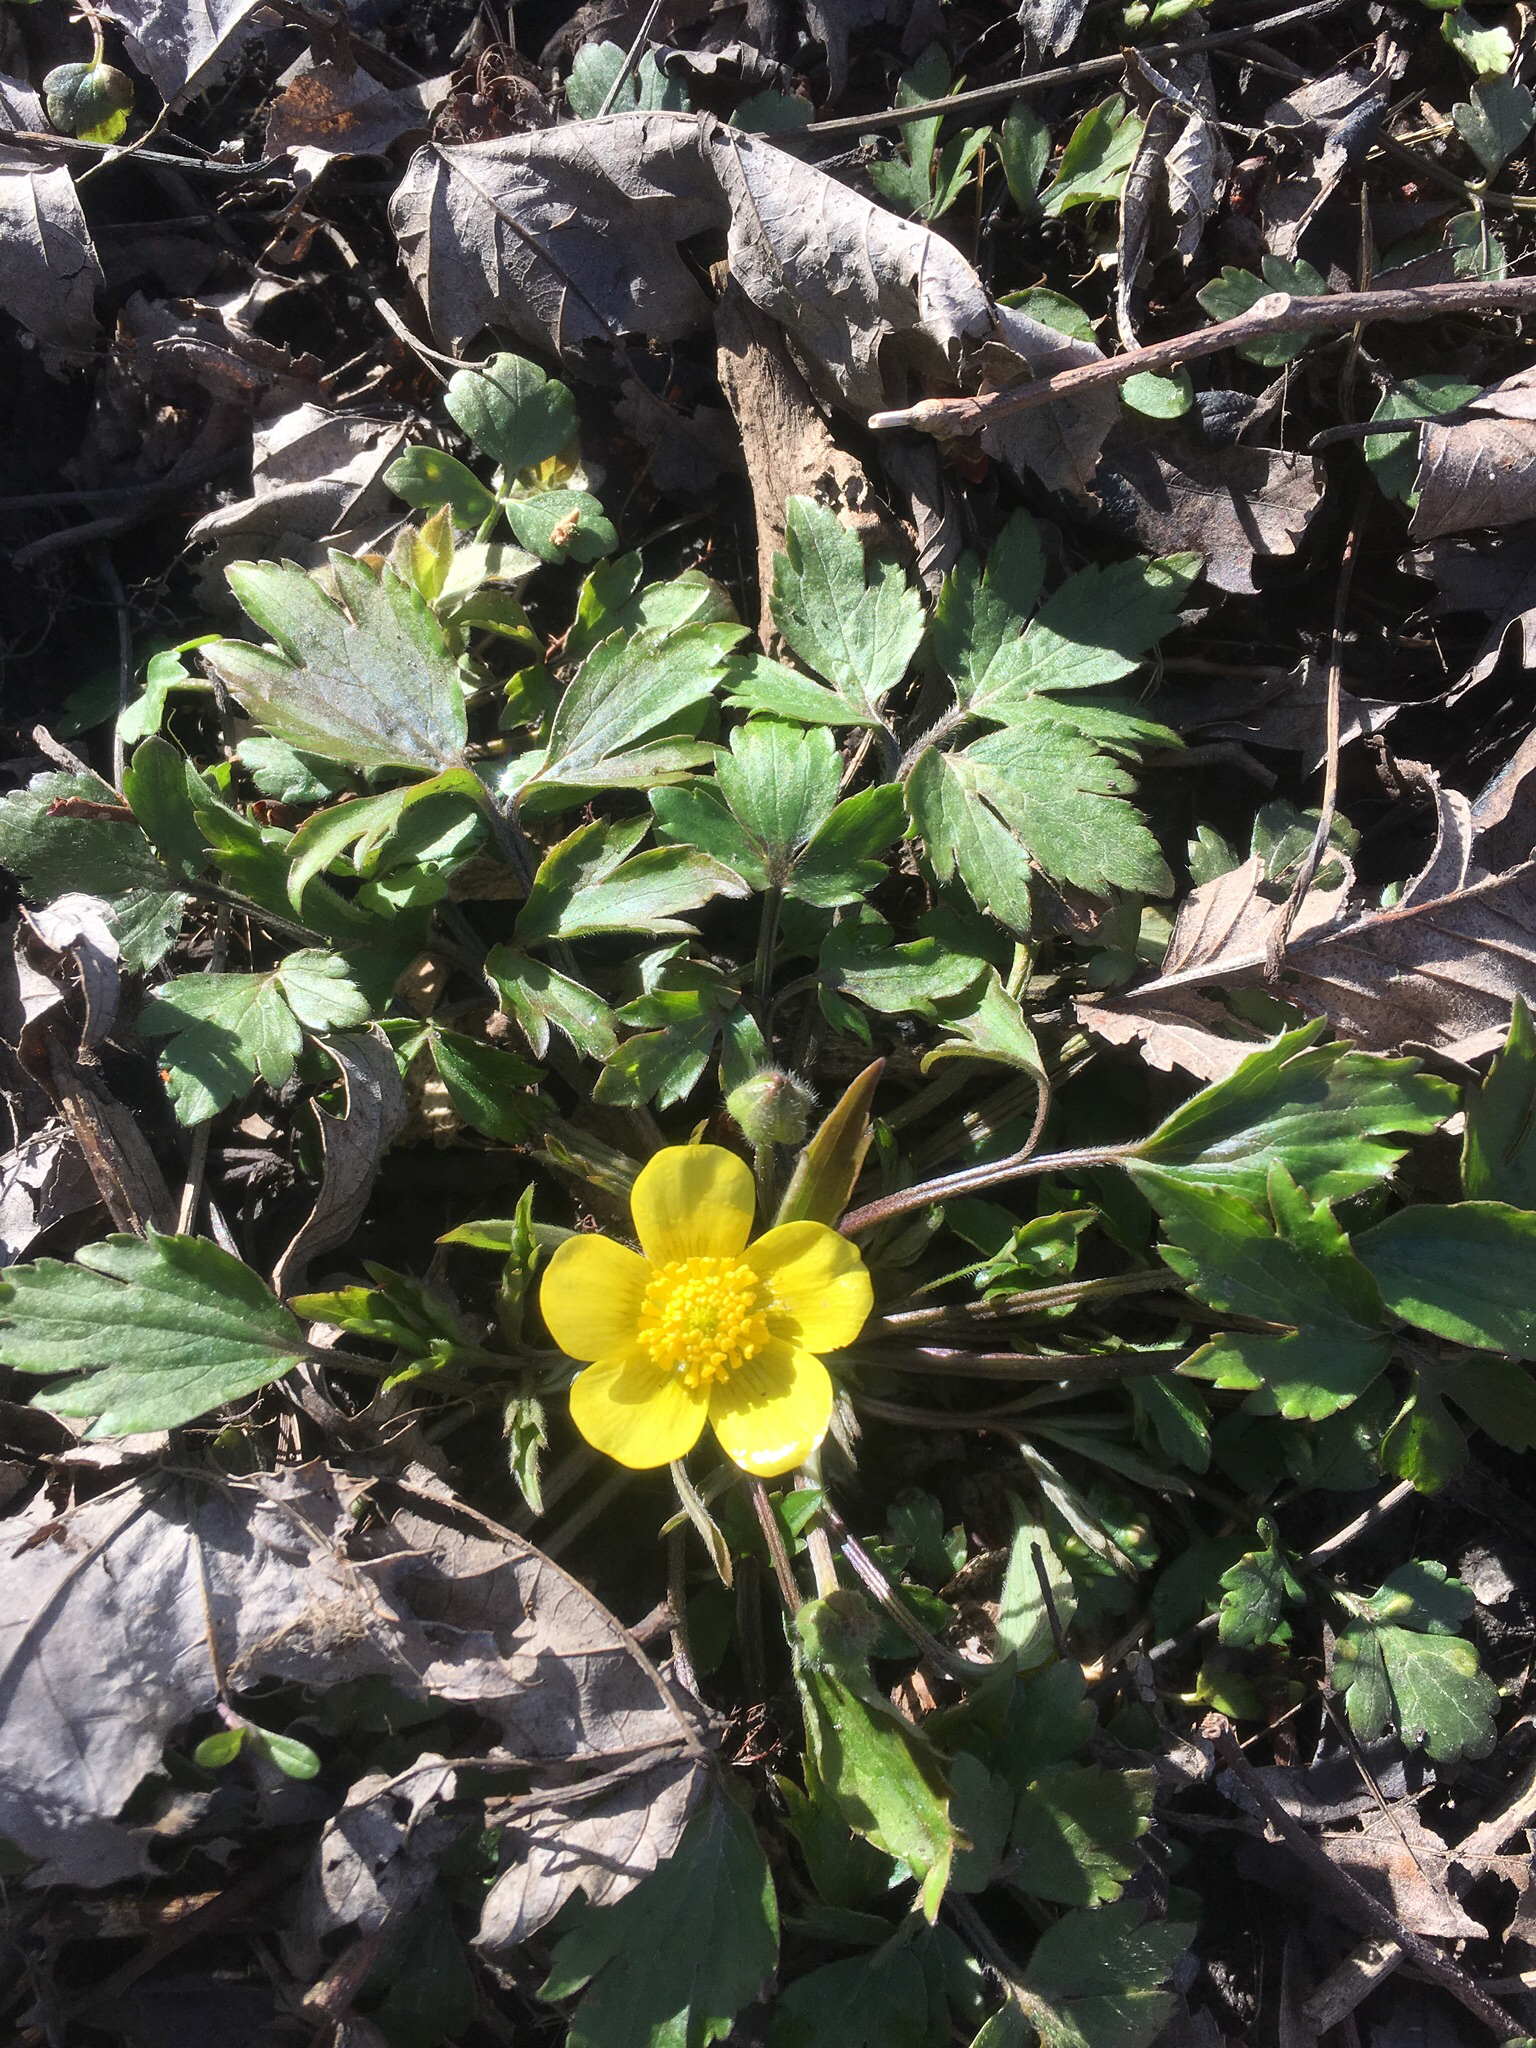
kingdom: Plantae
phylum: Tracheophyta
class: Magnoliopsida
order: Ranunculales
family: Ranunculaceae
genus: Ranunculus
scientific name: Ranunculus hispidus
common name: Bristly buttercup
